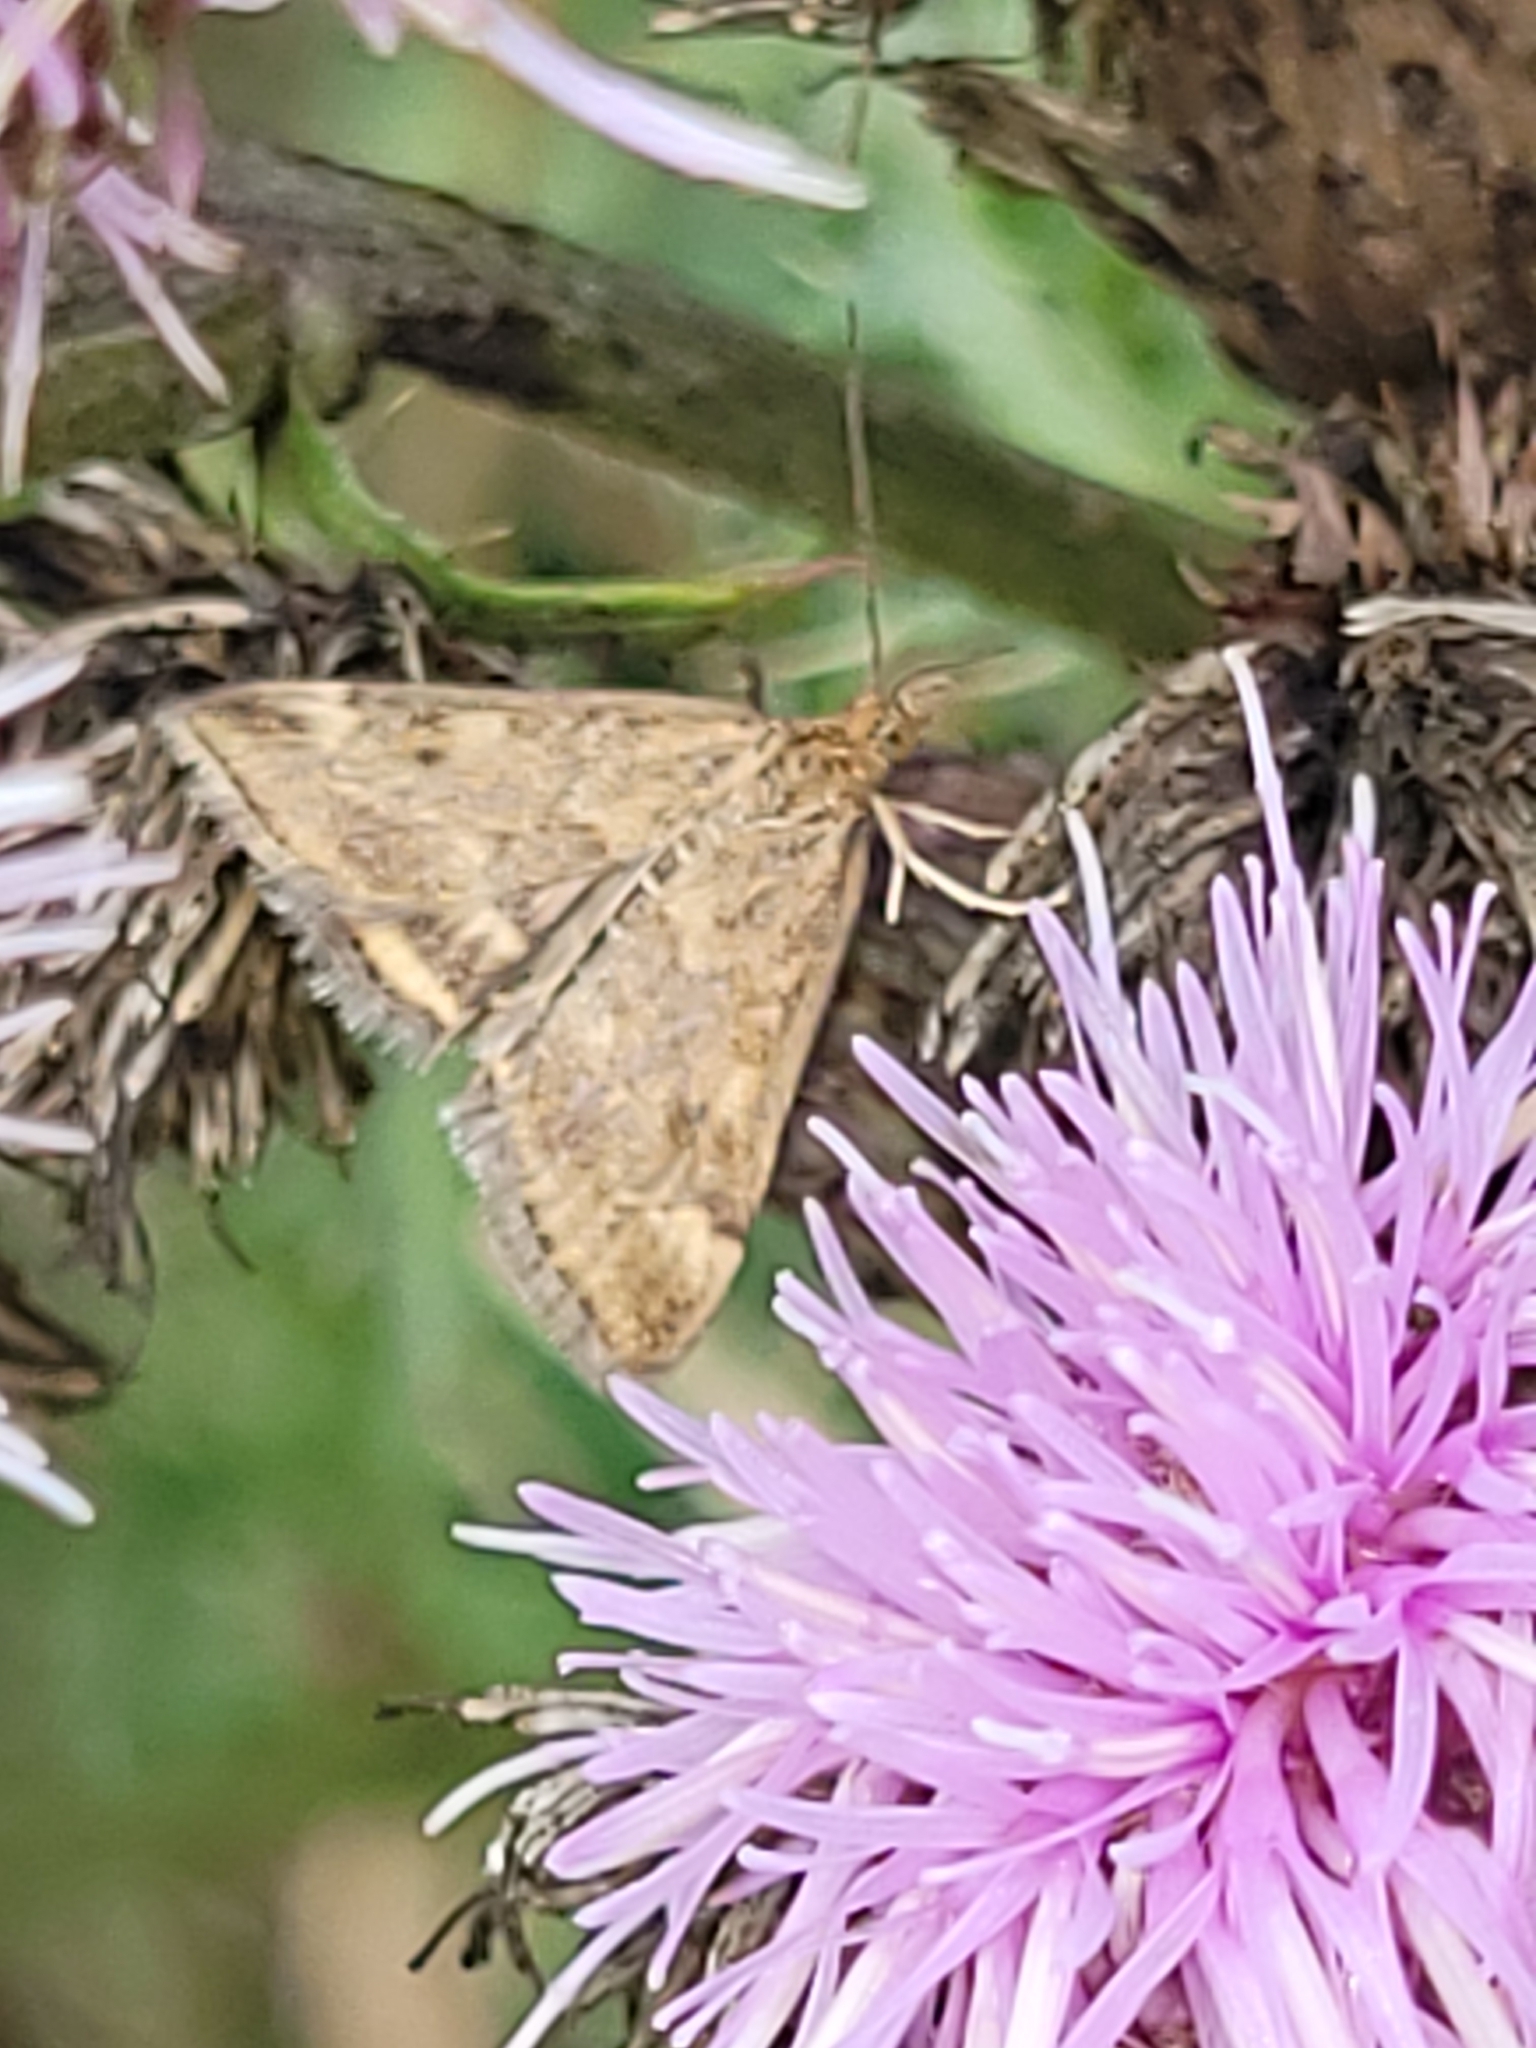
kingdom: Animalia
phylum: Arthropoda
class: Insecta
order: Lepidoptera
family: Crambidae
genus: Pyrausta
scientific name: Pyrausta despicata
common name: Straw-barred pearl
